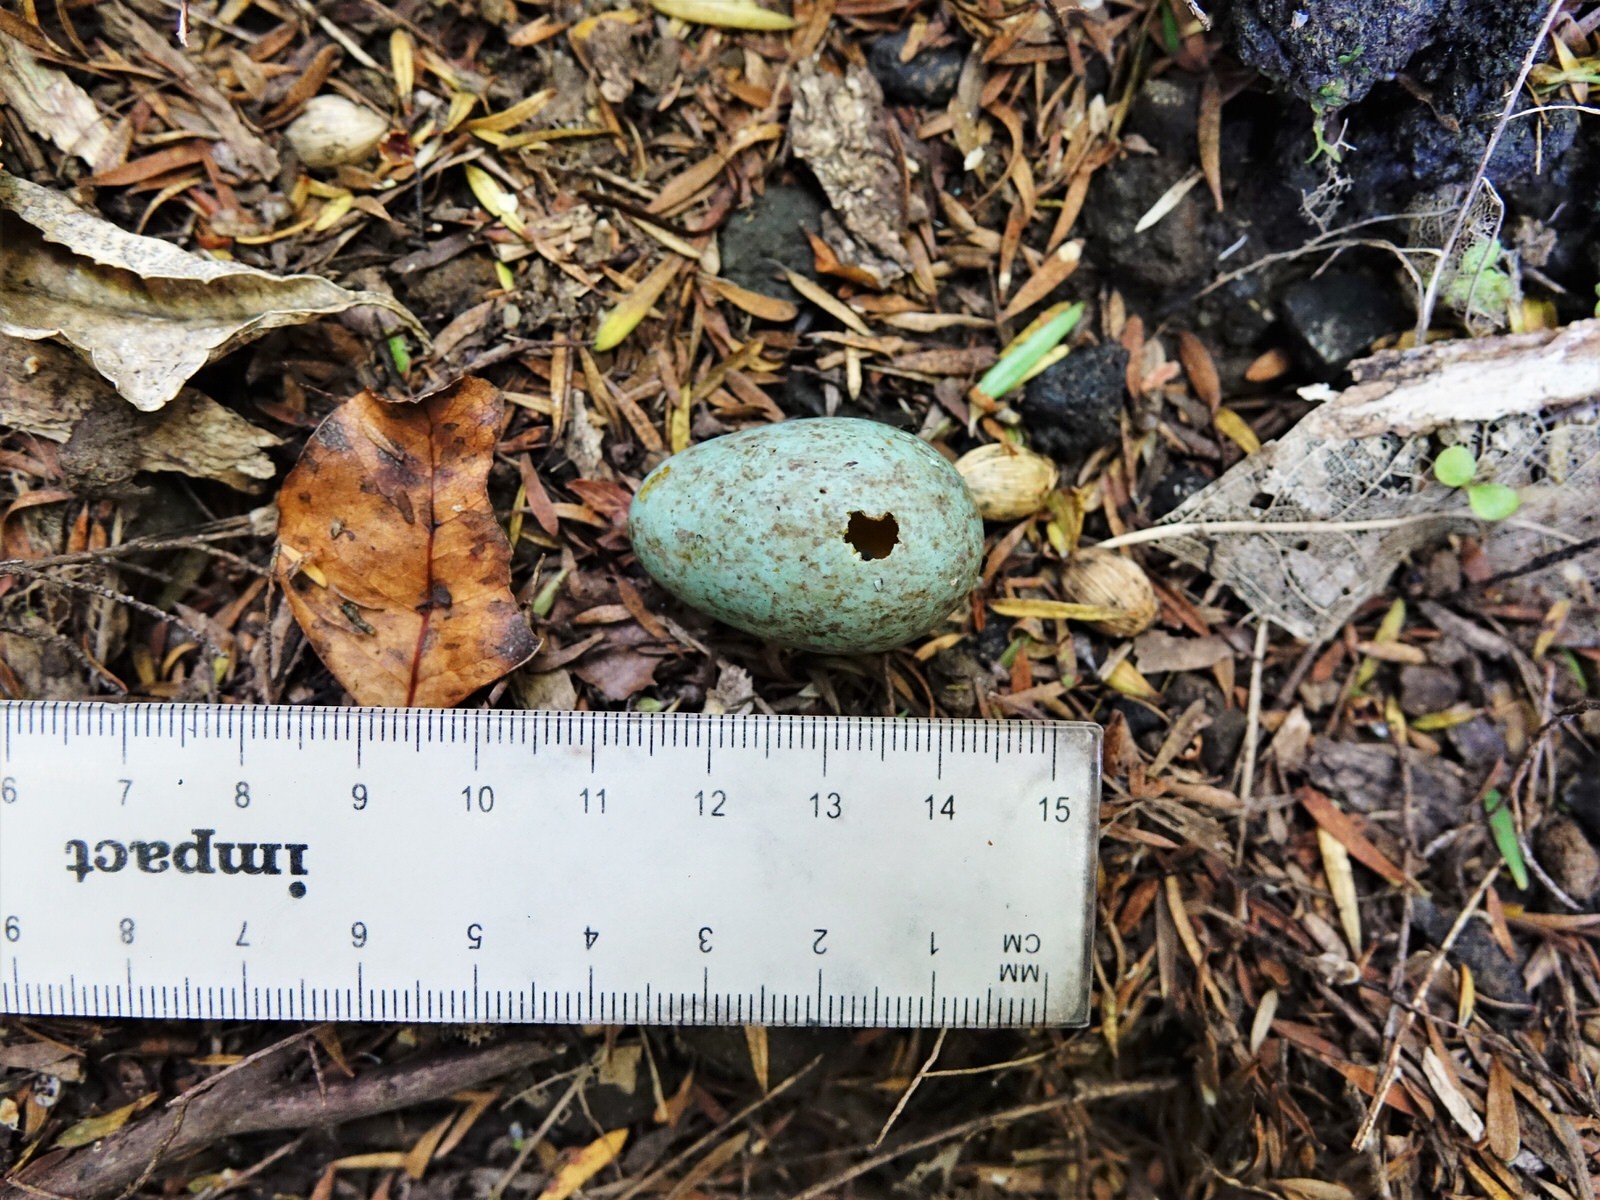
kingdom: Animalia
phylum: Chordata
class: Aves
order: Passeriformes
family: Turdidae
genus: Turdus
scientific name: Turdus merula
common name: Common blackbird
